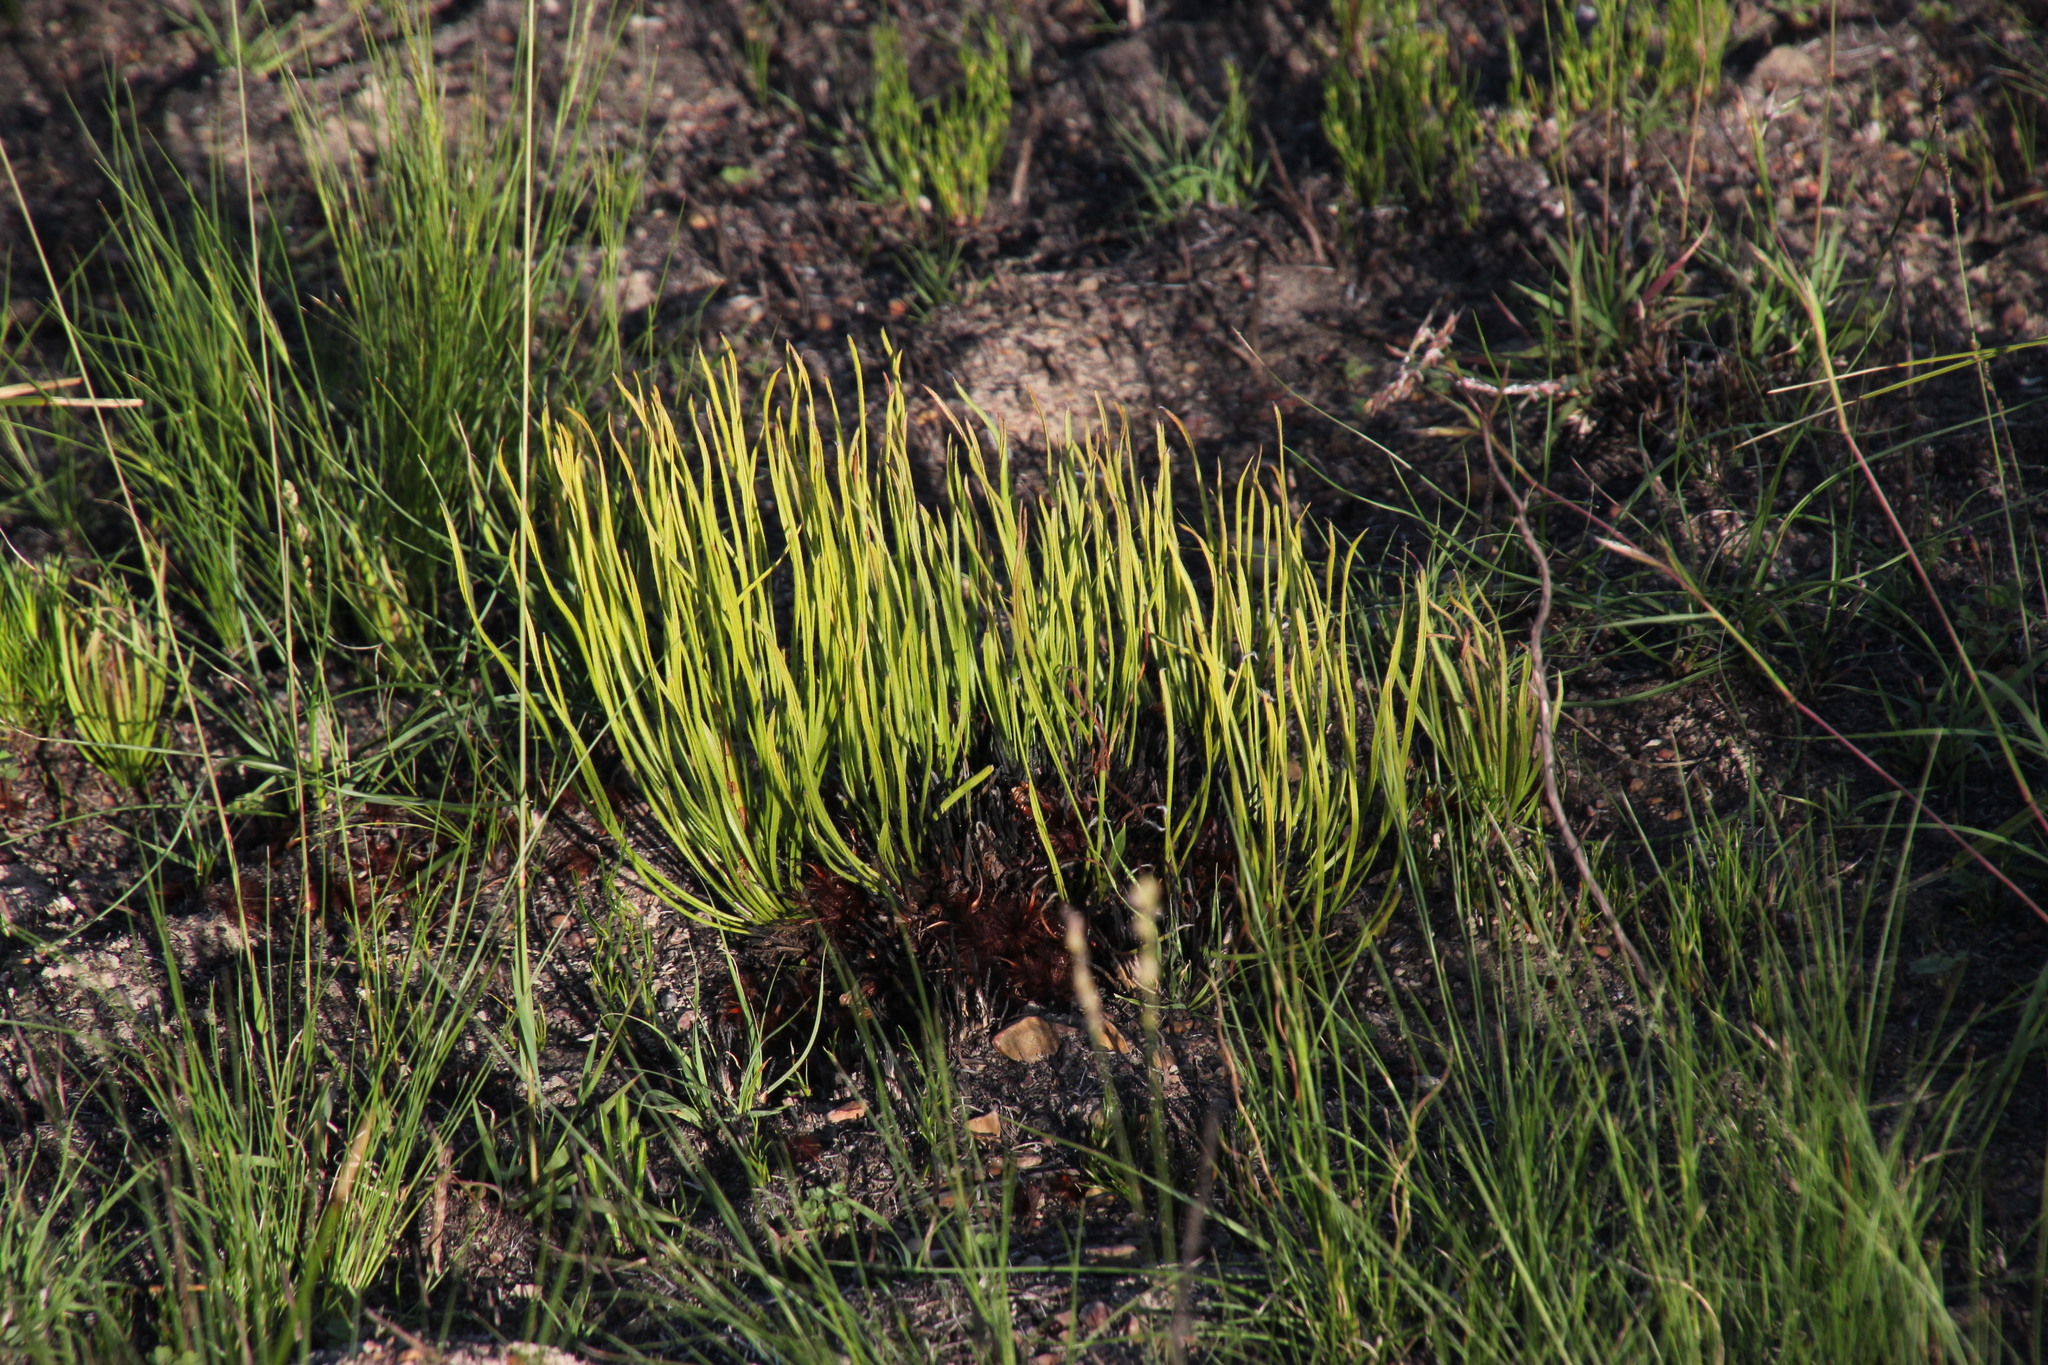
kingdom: Plantae
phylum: Tracheophyta
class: Magnoliopsida
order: Proteales
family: Proteaceae
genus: Protea
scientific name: Protea piscina
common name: Visgat sugarbush
